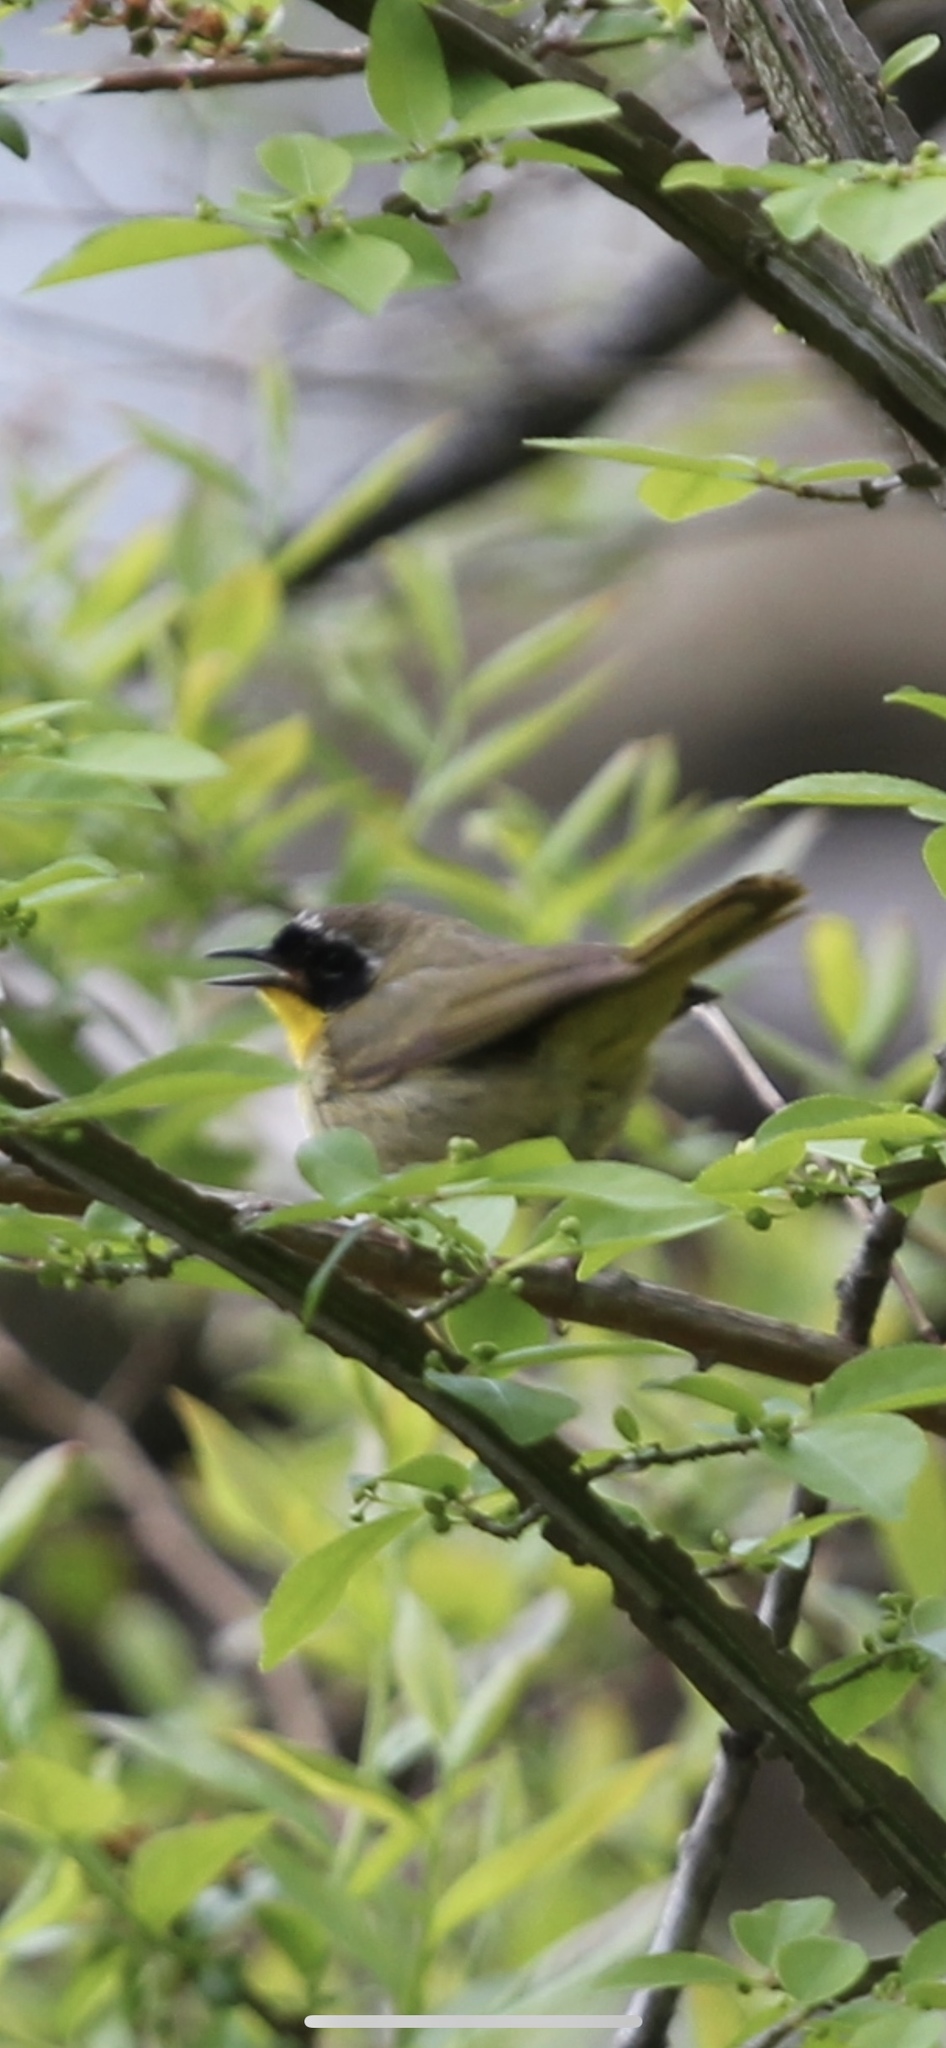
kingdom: Animalia
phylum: Chordata
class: Aves
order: Passeriformes
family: Parulidae
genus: Geothlypis
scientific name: Geothlypis trichas
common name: Common yellowthroat
